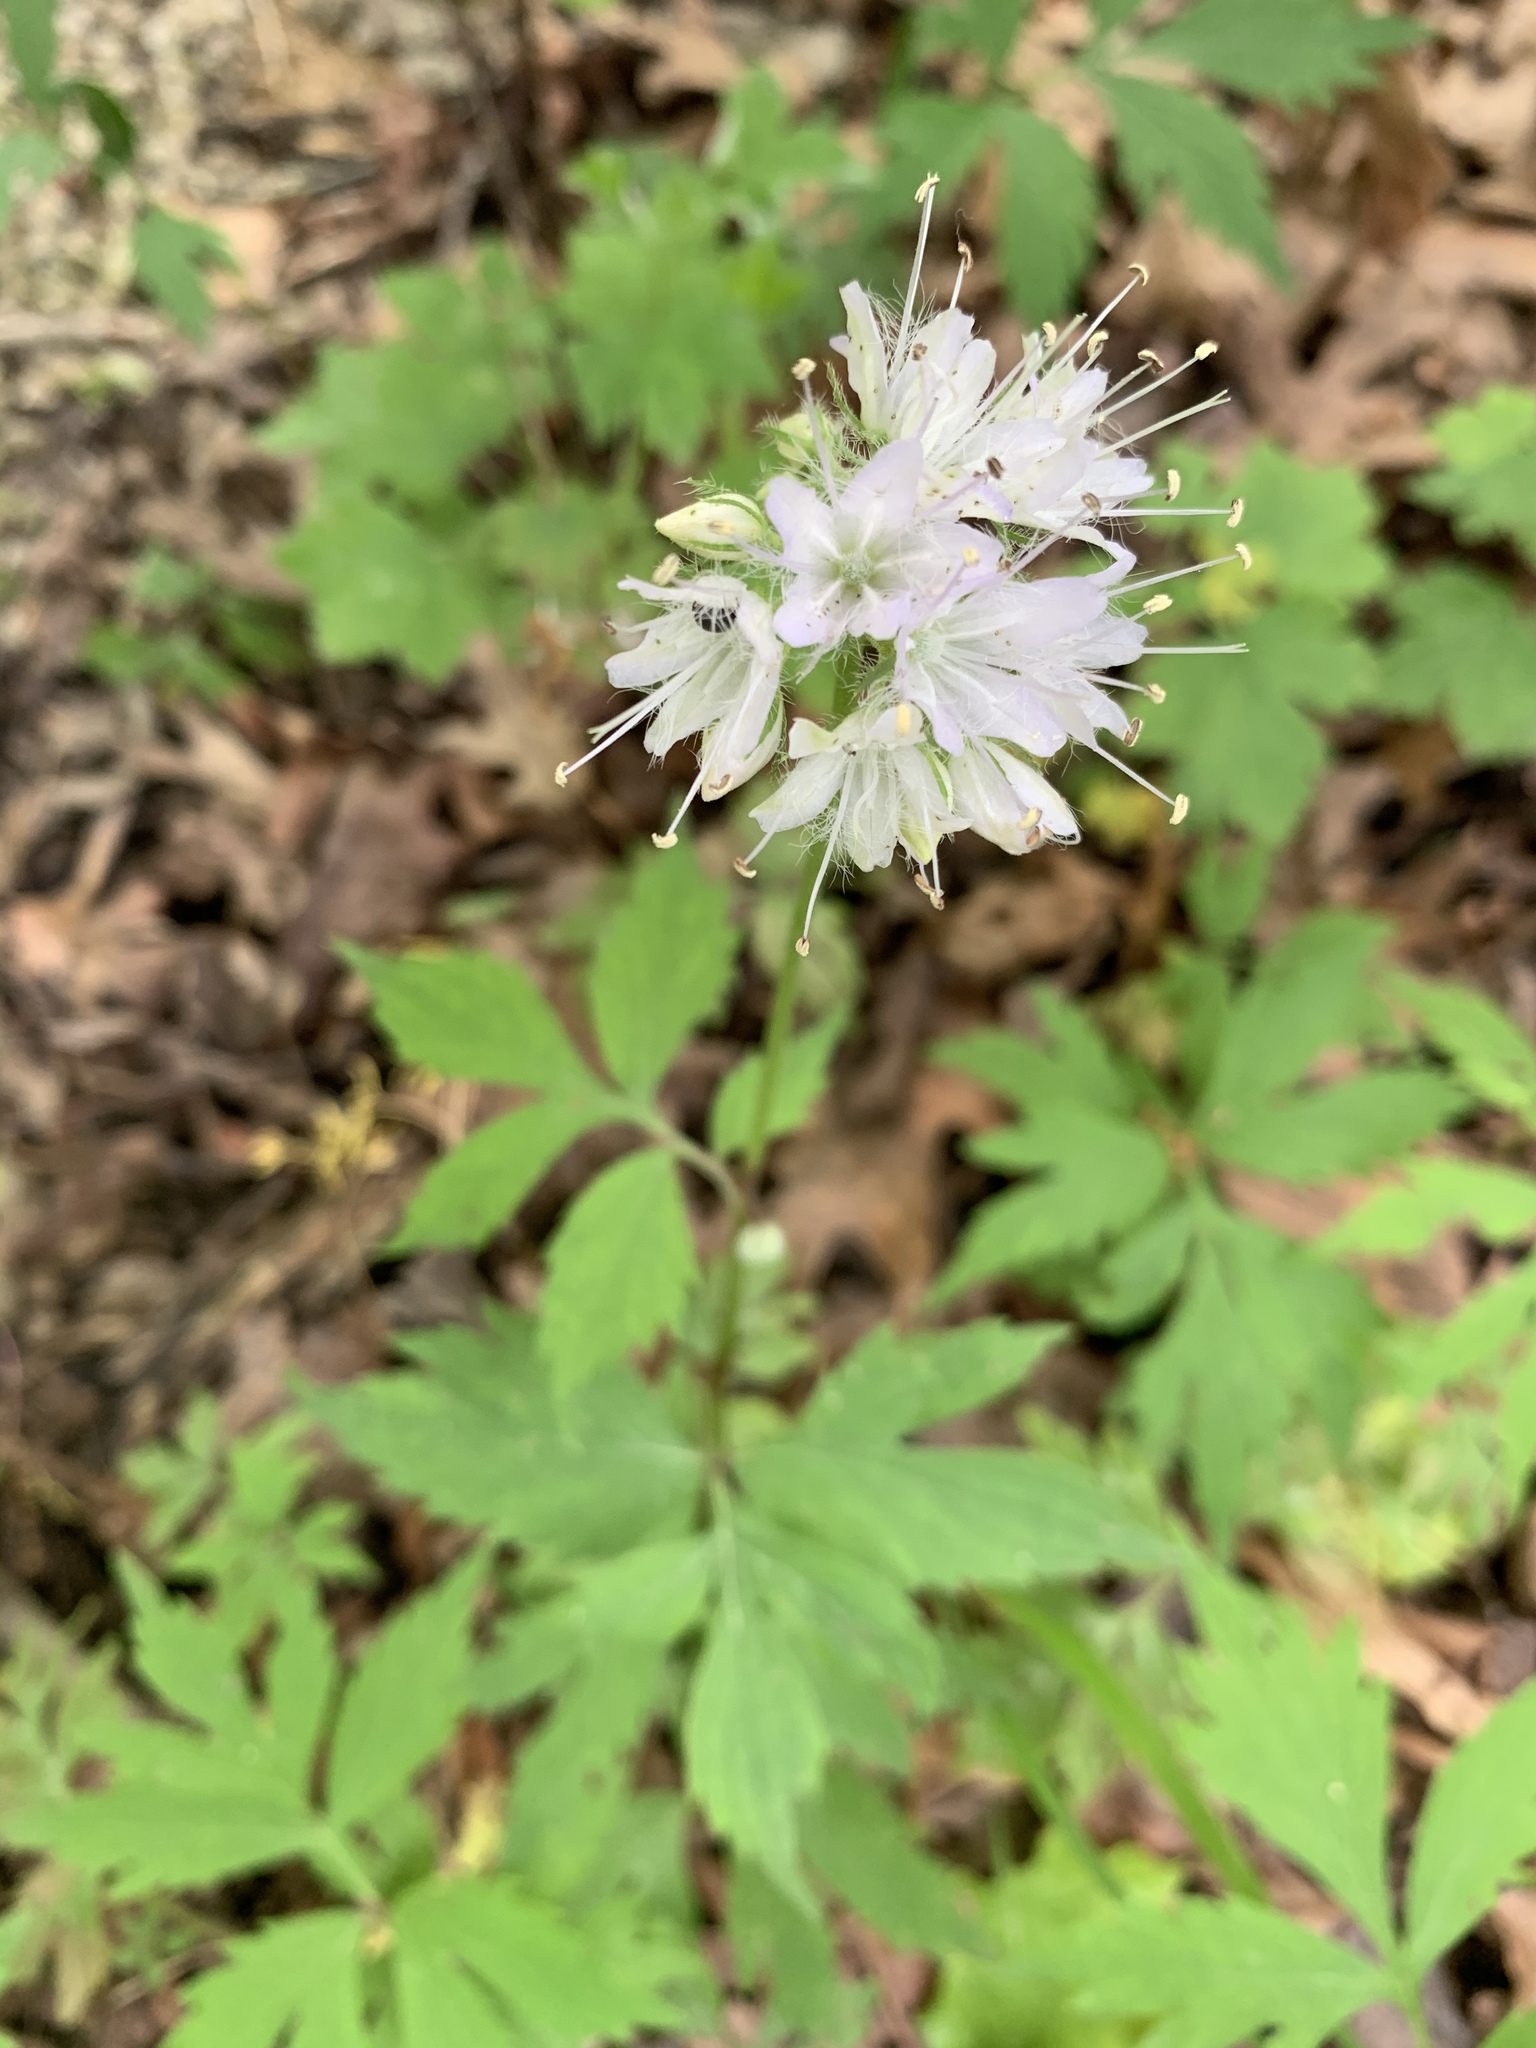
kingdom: Plantae
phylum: Tracheophyta
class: Magnoliopsida
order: Boraginales
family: Hydrophyllaceae
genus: Hydrophyllum
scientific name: Hydrophyllum virginianum
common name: Virginia waterleaf
